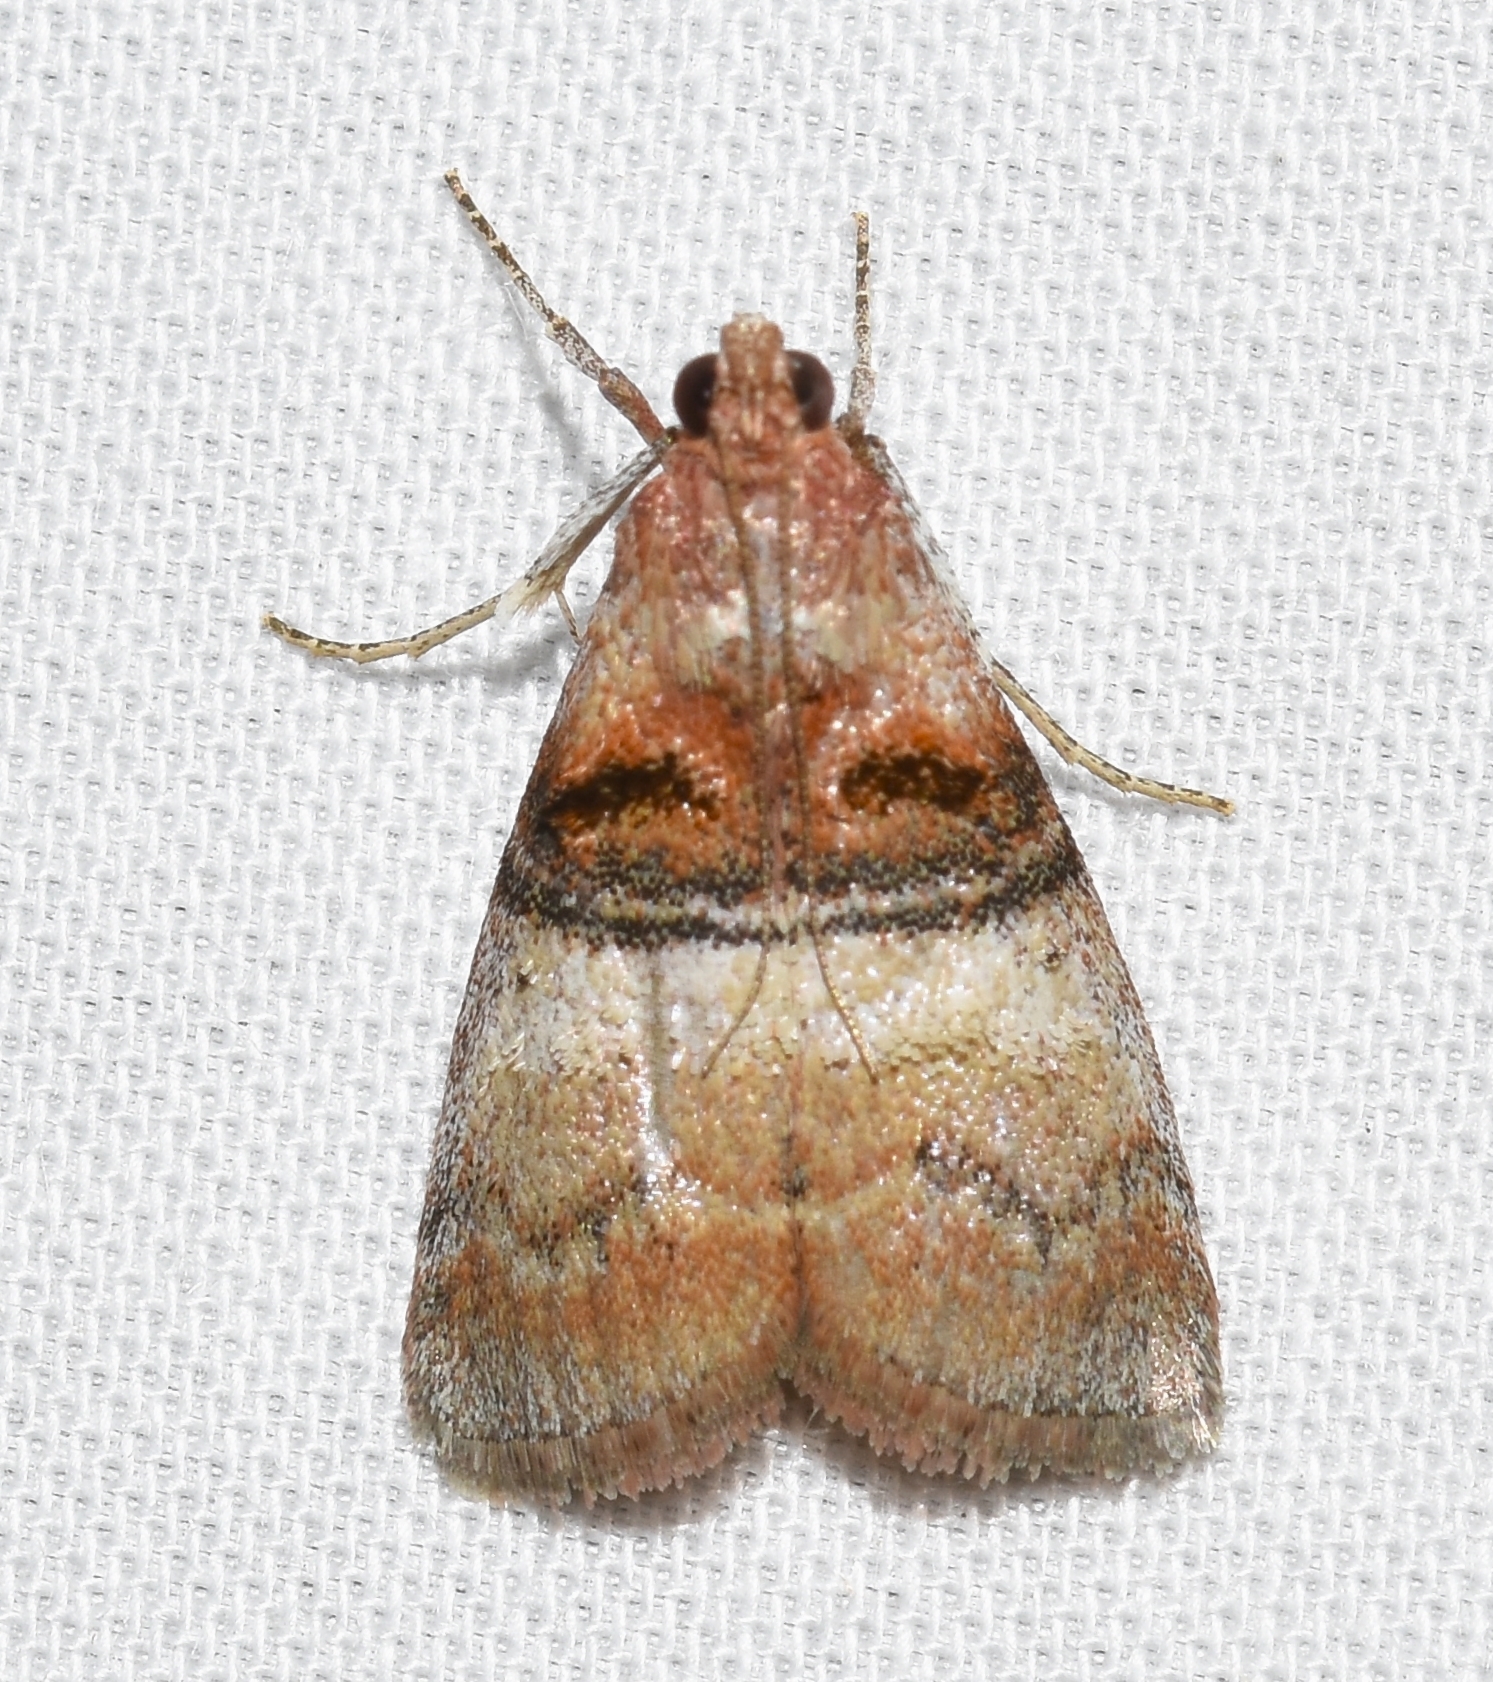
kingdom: Animalia
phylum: Arthropoda
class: Insecta
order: Lepidoptera
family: Pyralidae
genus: Pococera
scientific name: Pococera militella
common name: Sycamore webworm moth
